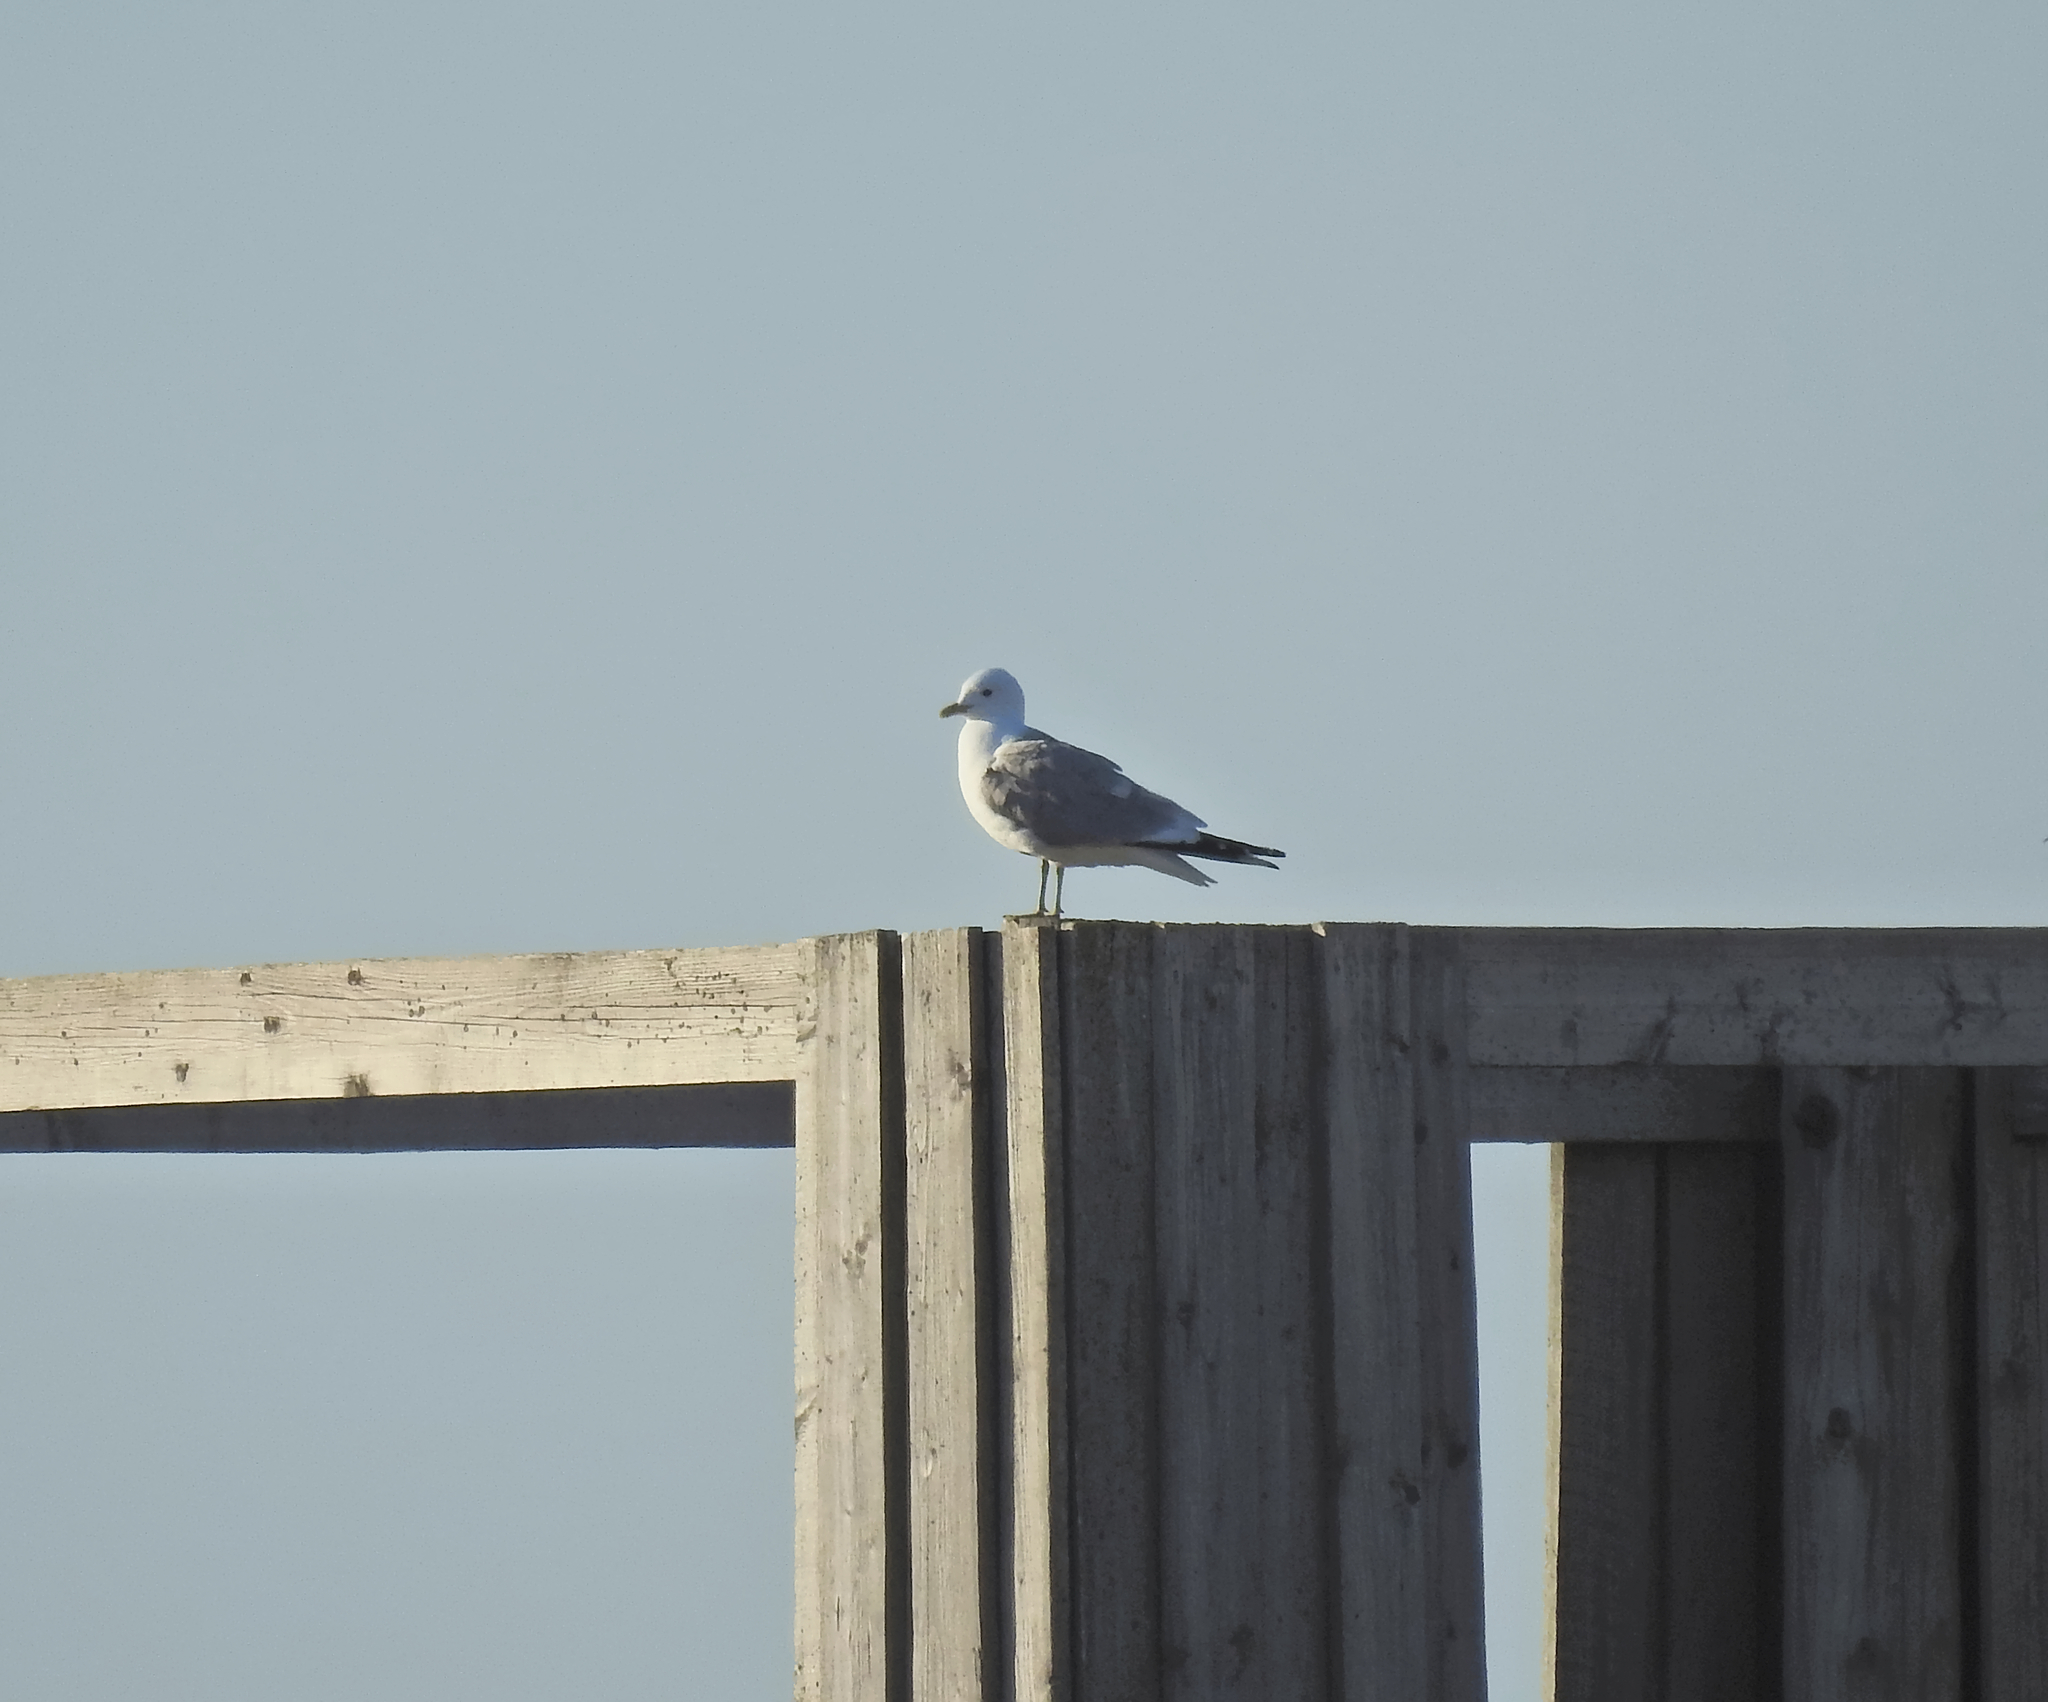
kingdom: Animalia
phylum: Chordata
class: Aves
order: Charadriiformes
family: Laridae
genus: Larus
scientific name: Larus canus
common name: Mew gull
